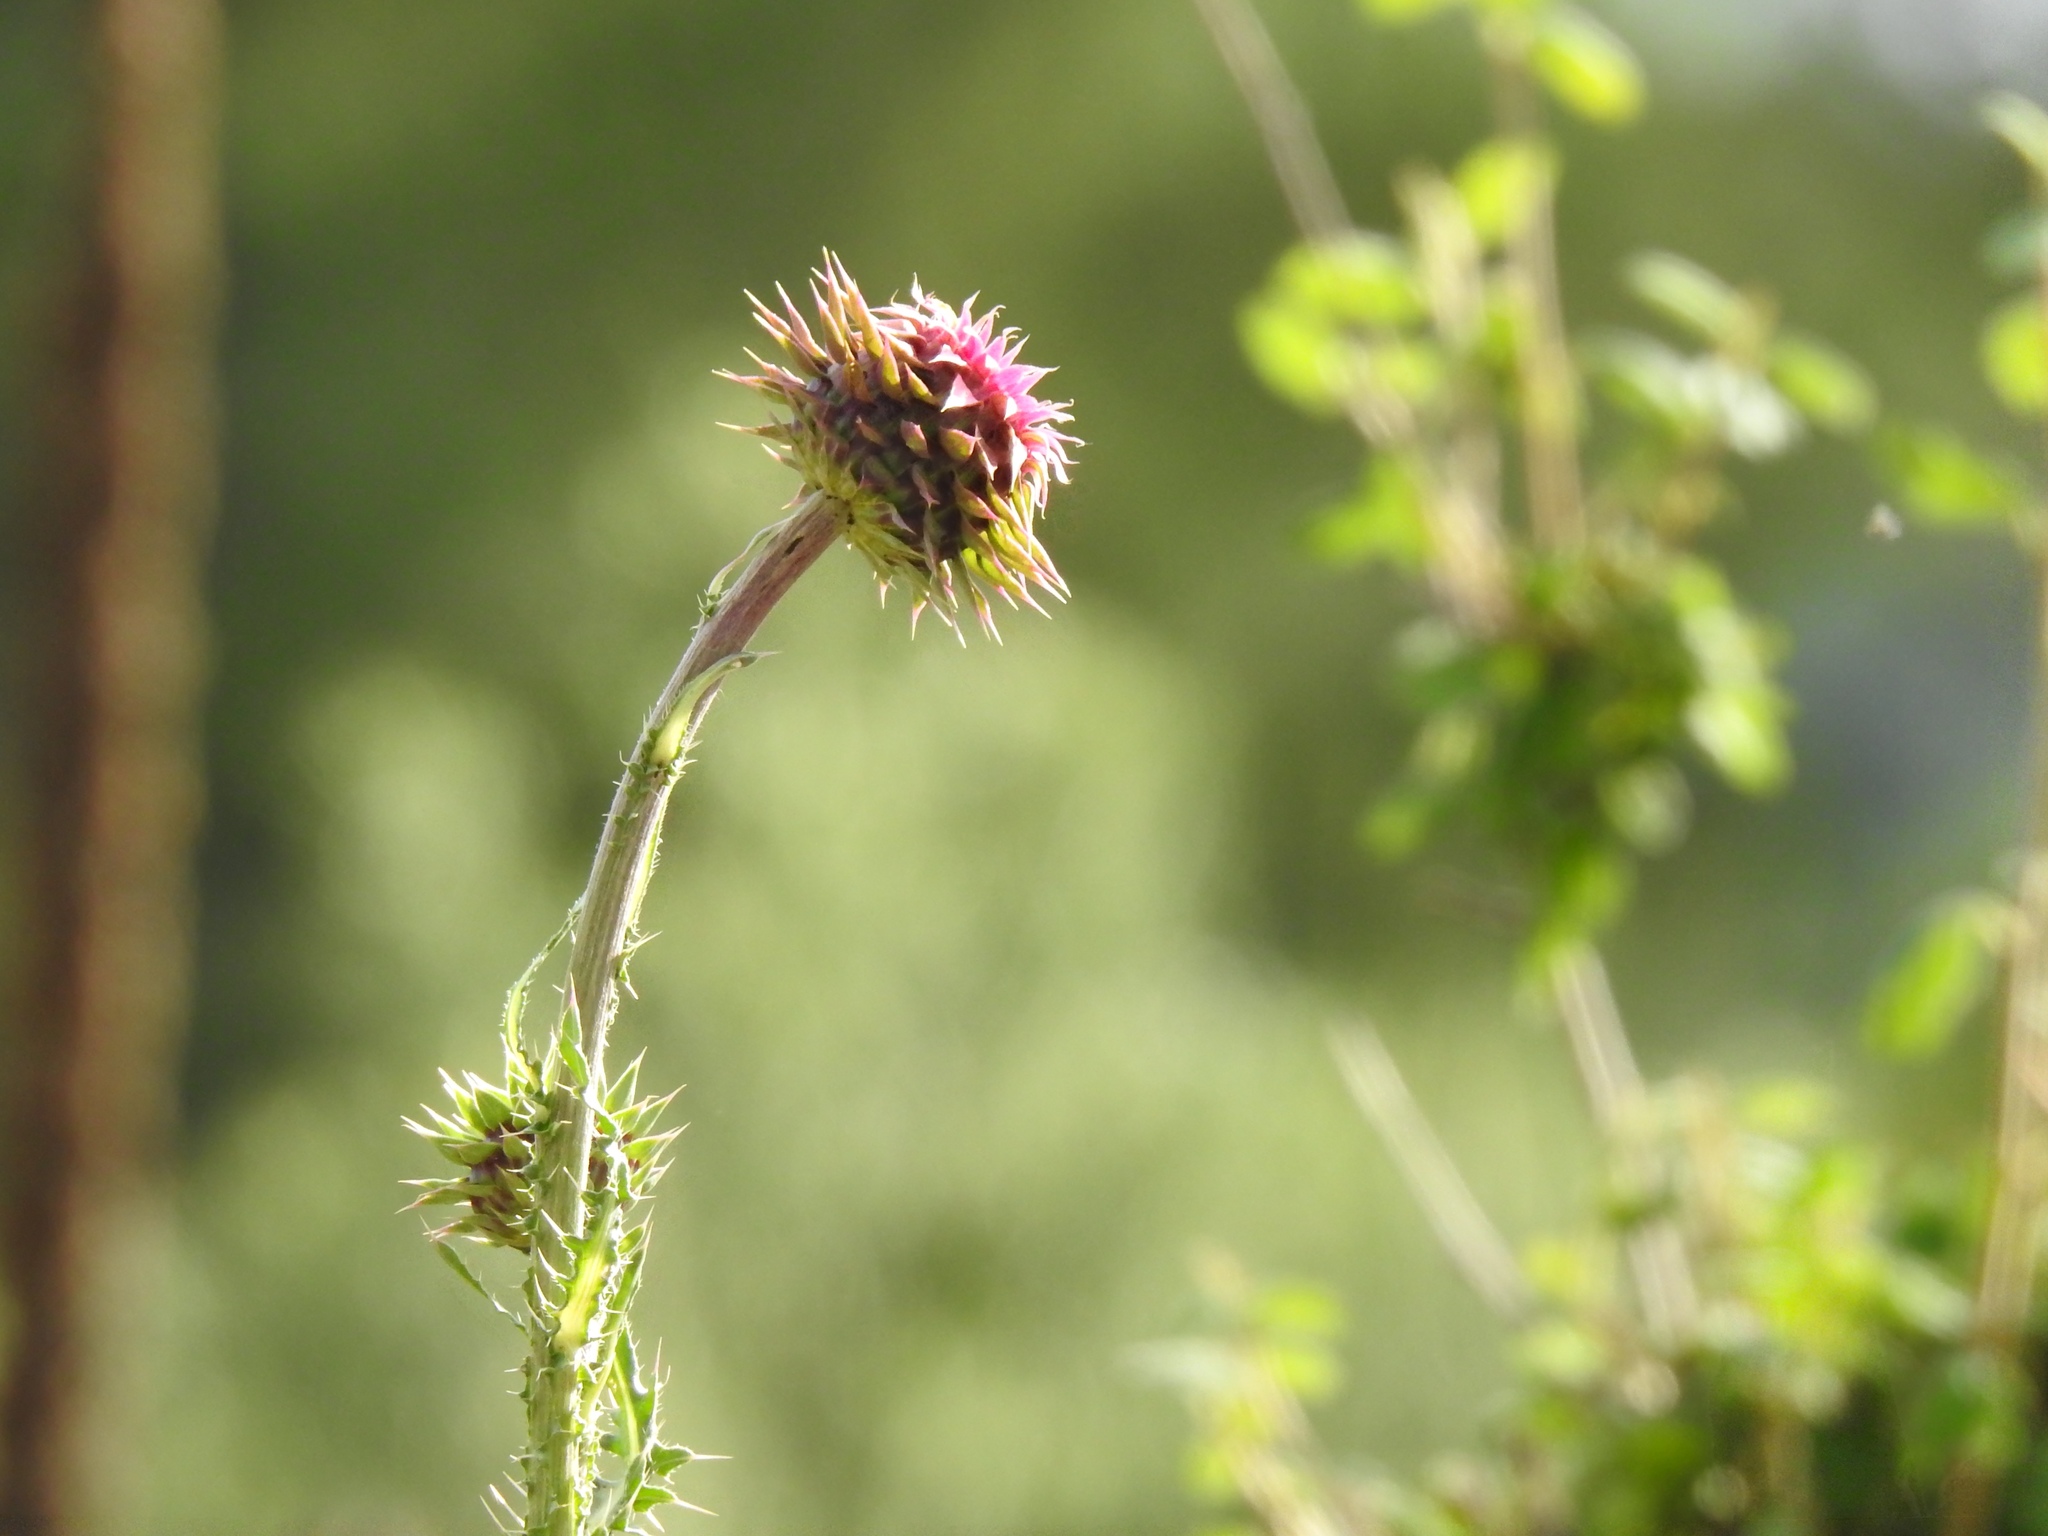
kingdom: Plantae
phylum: Tracheophyta
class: Magnoliopsida
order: Asterales
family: Asteraceae
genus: Carduus
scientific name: Carduus nutans
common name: Musk thistle
